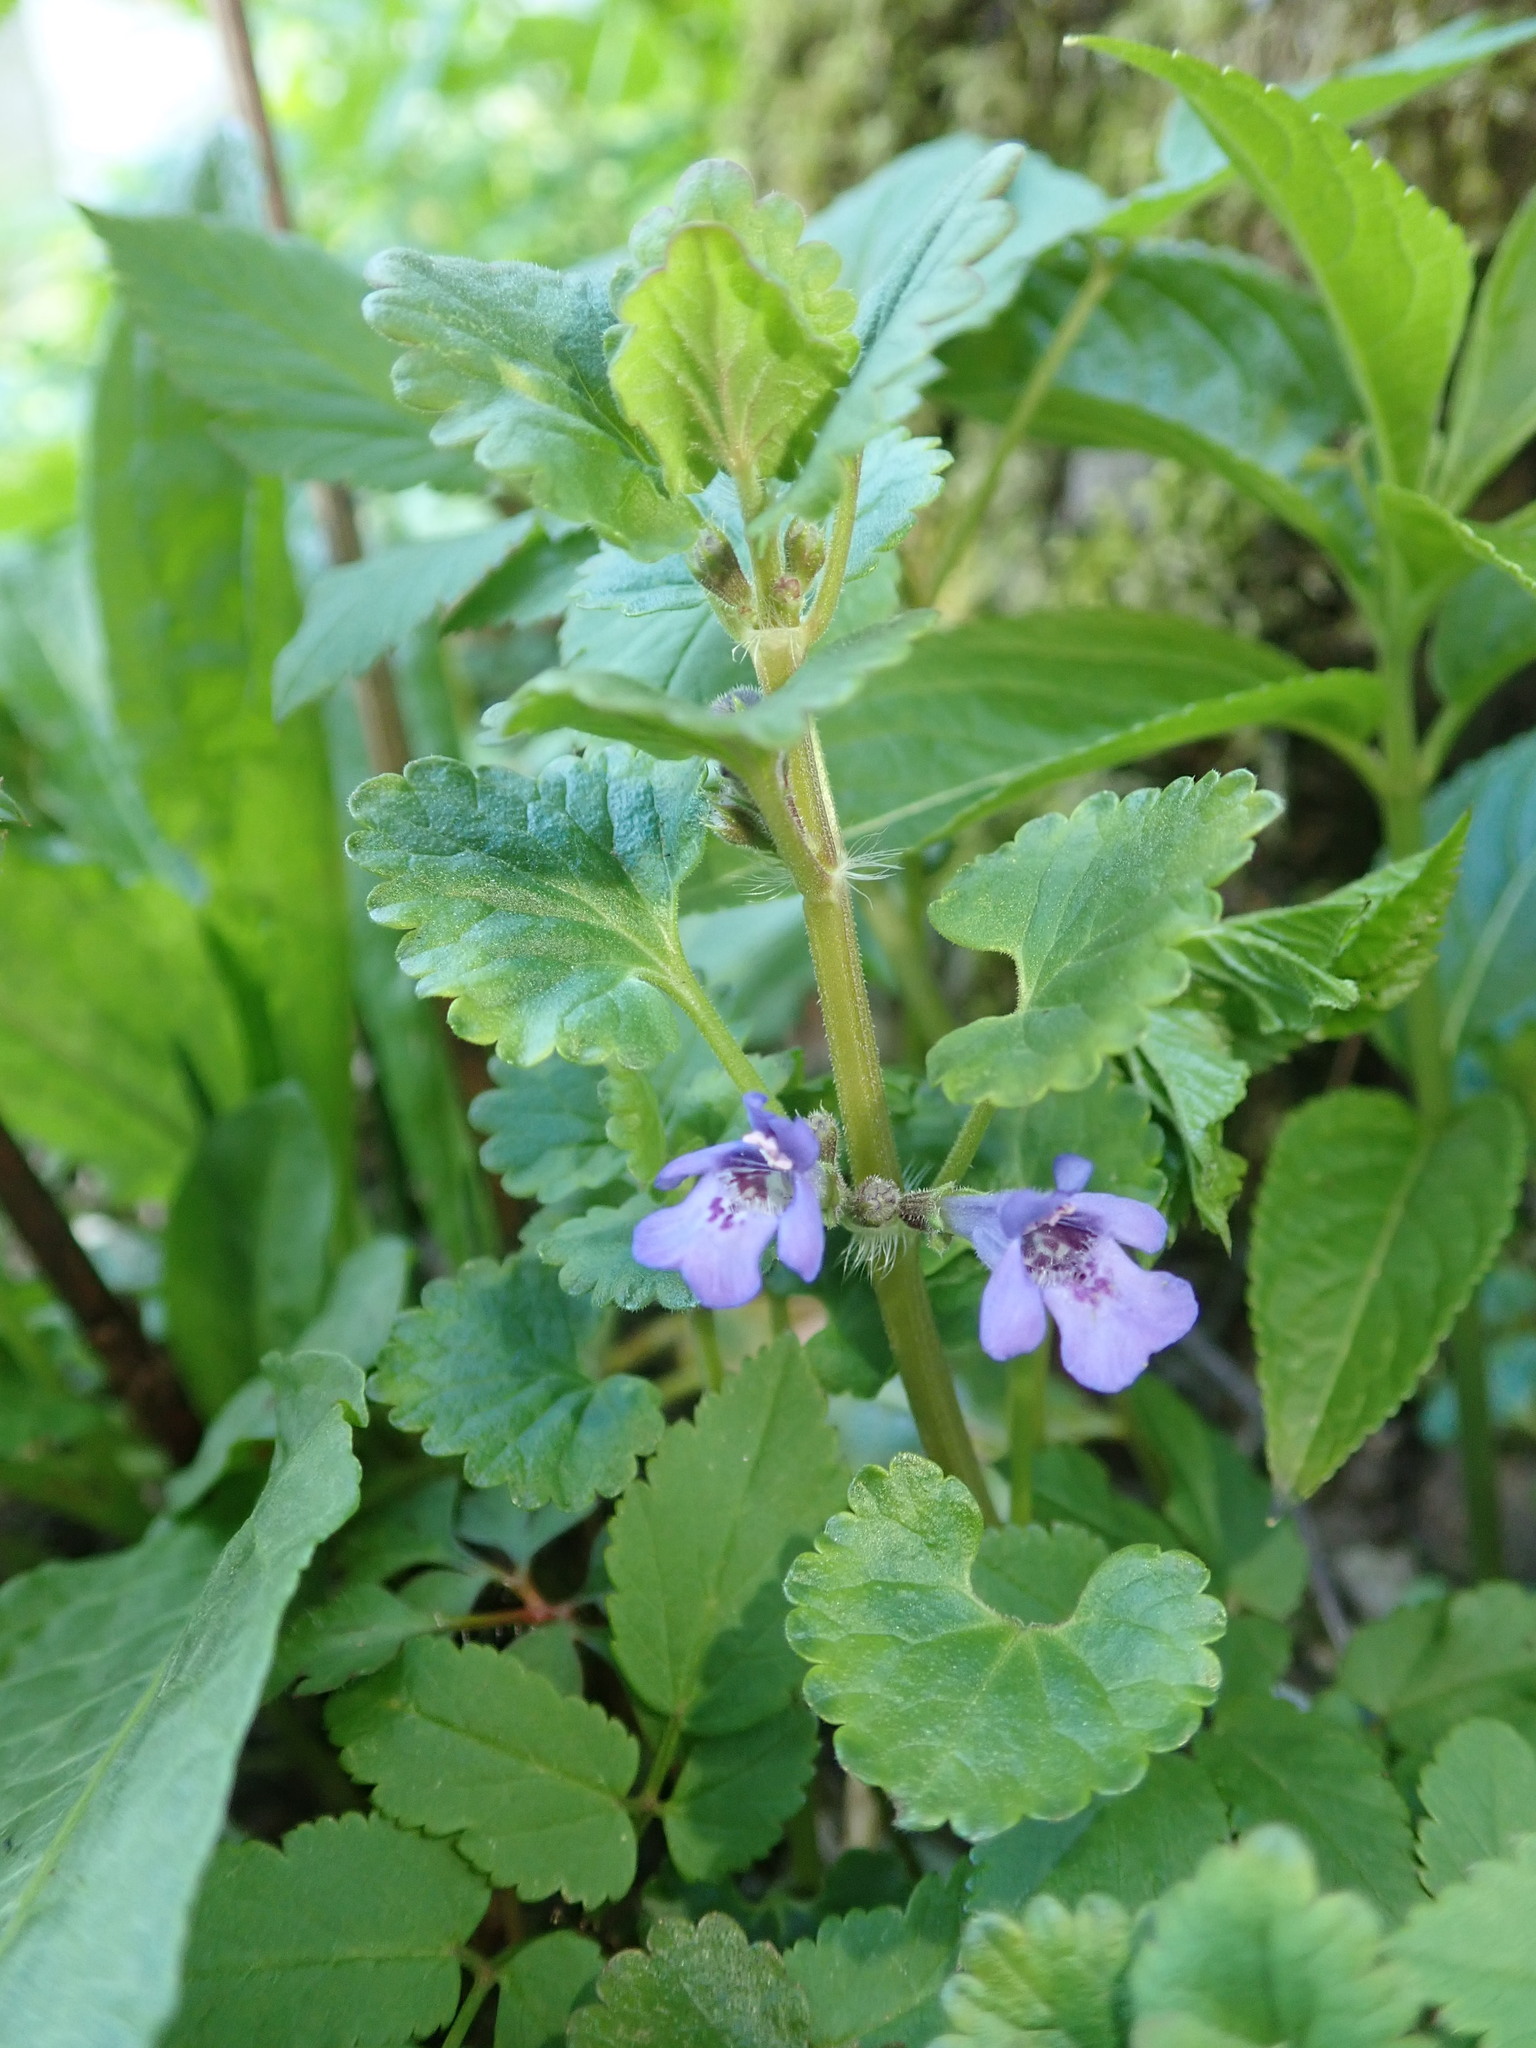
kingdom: Plantae
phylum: Tracheophyta
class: Magnoliopsida
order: Lamiales
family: Lamiaceae
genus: Glechoma
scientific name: Glechoma hederacea
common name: Ground ivy
